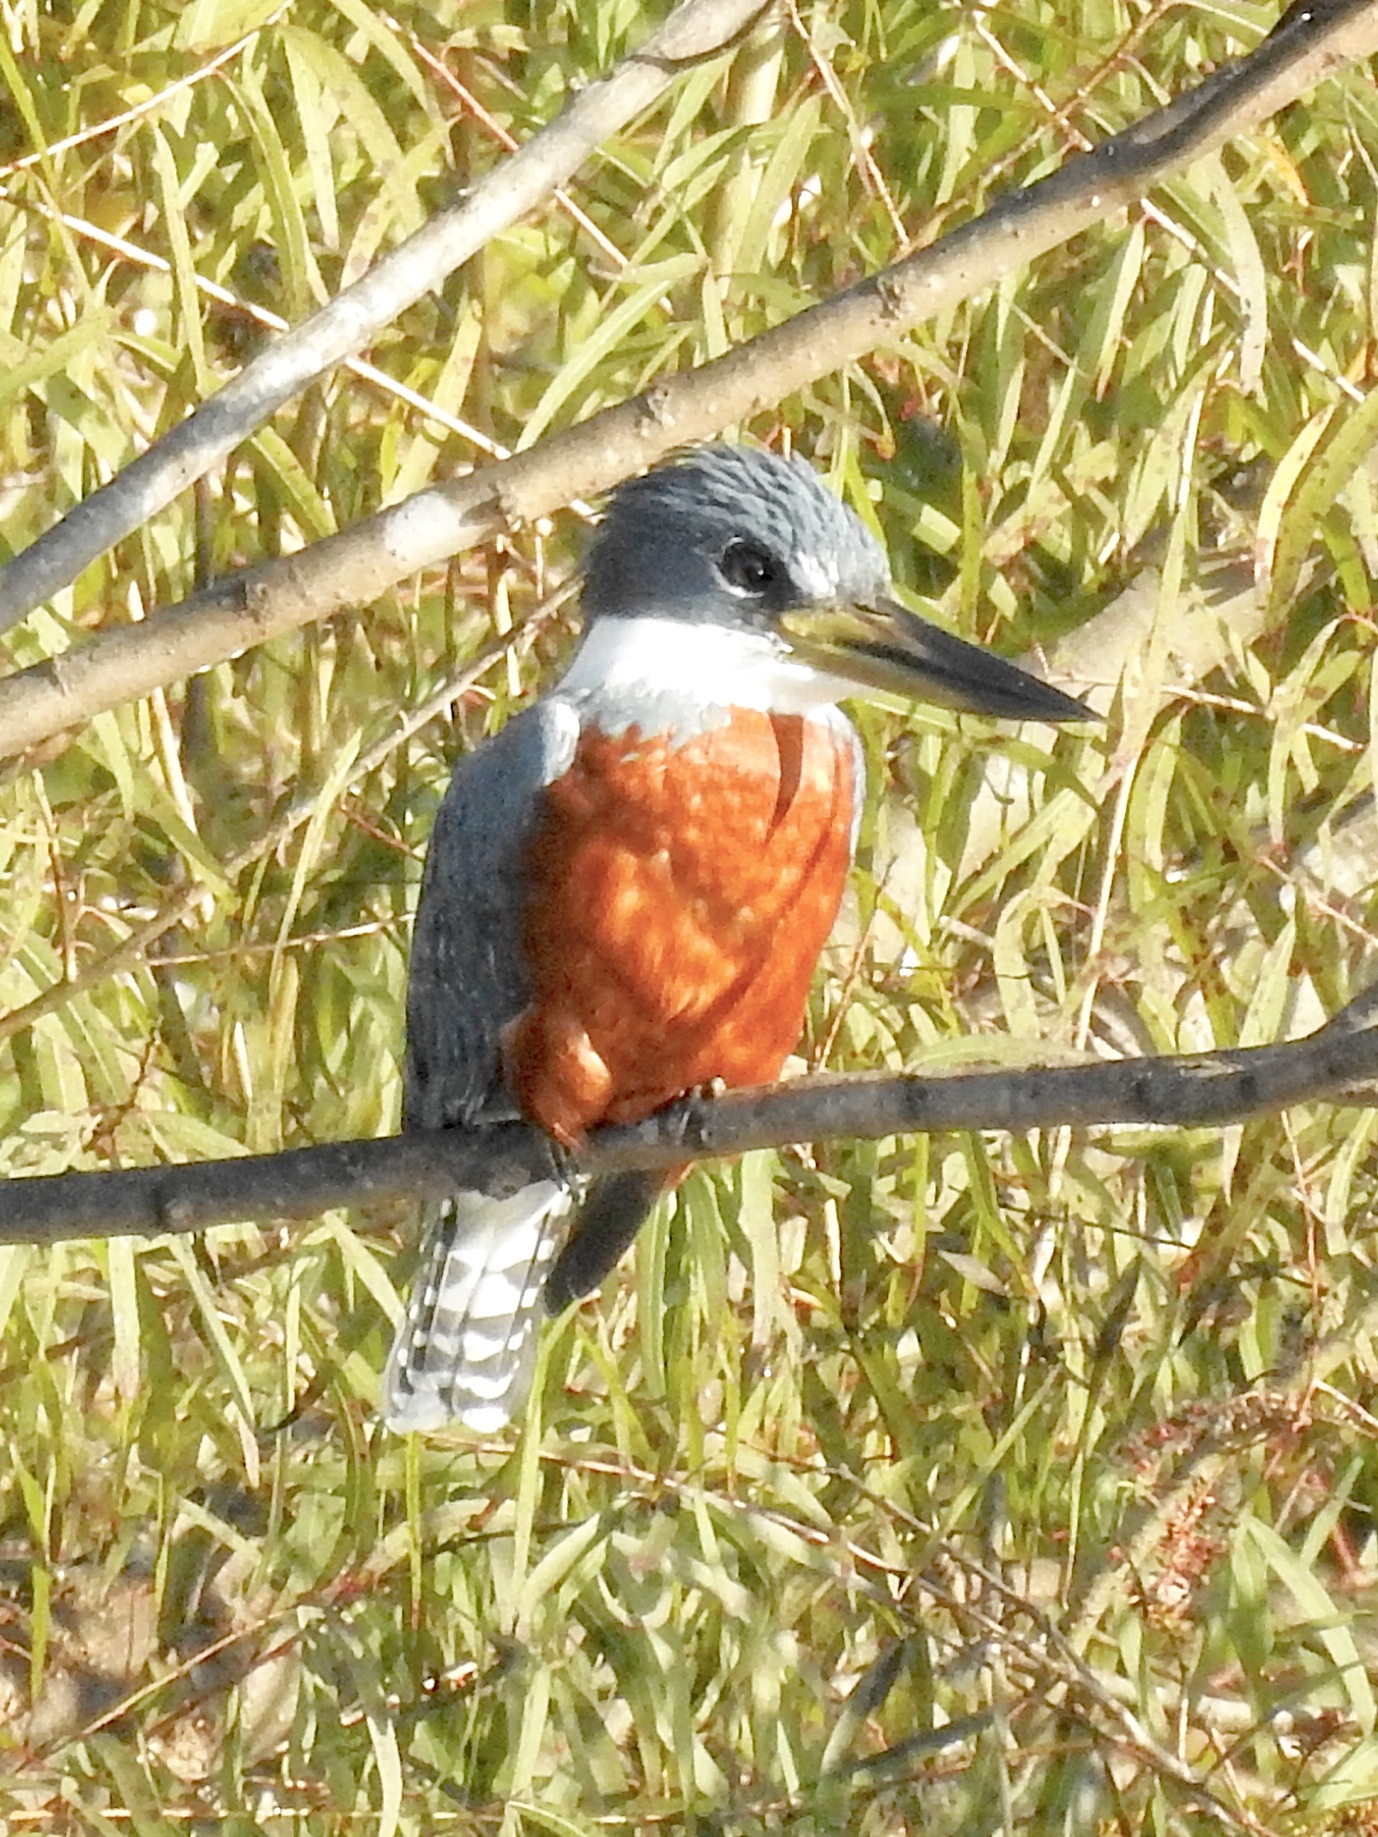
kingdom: Animalia
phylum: Chordata
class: Aves
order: Coraciiformes
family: Alcedinidae
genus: Megaceryle
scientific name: Megaceryle torquata
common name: Ringed kingfisher
